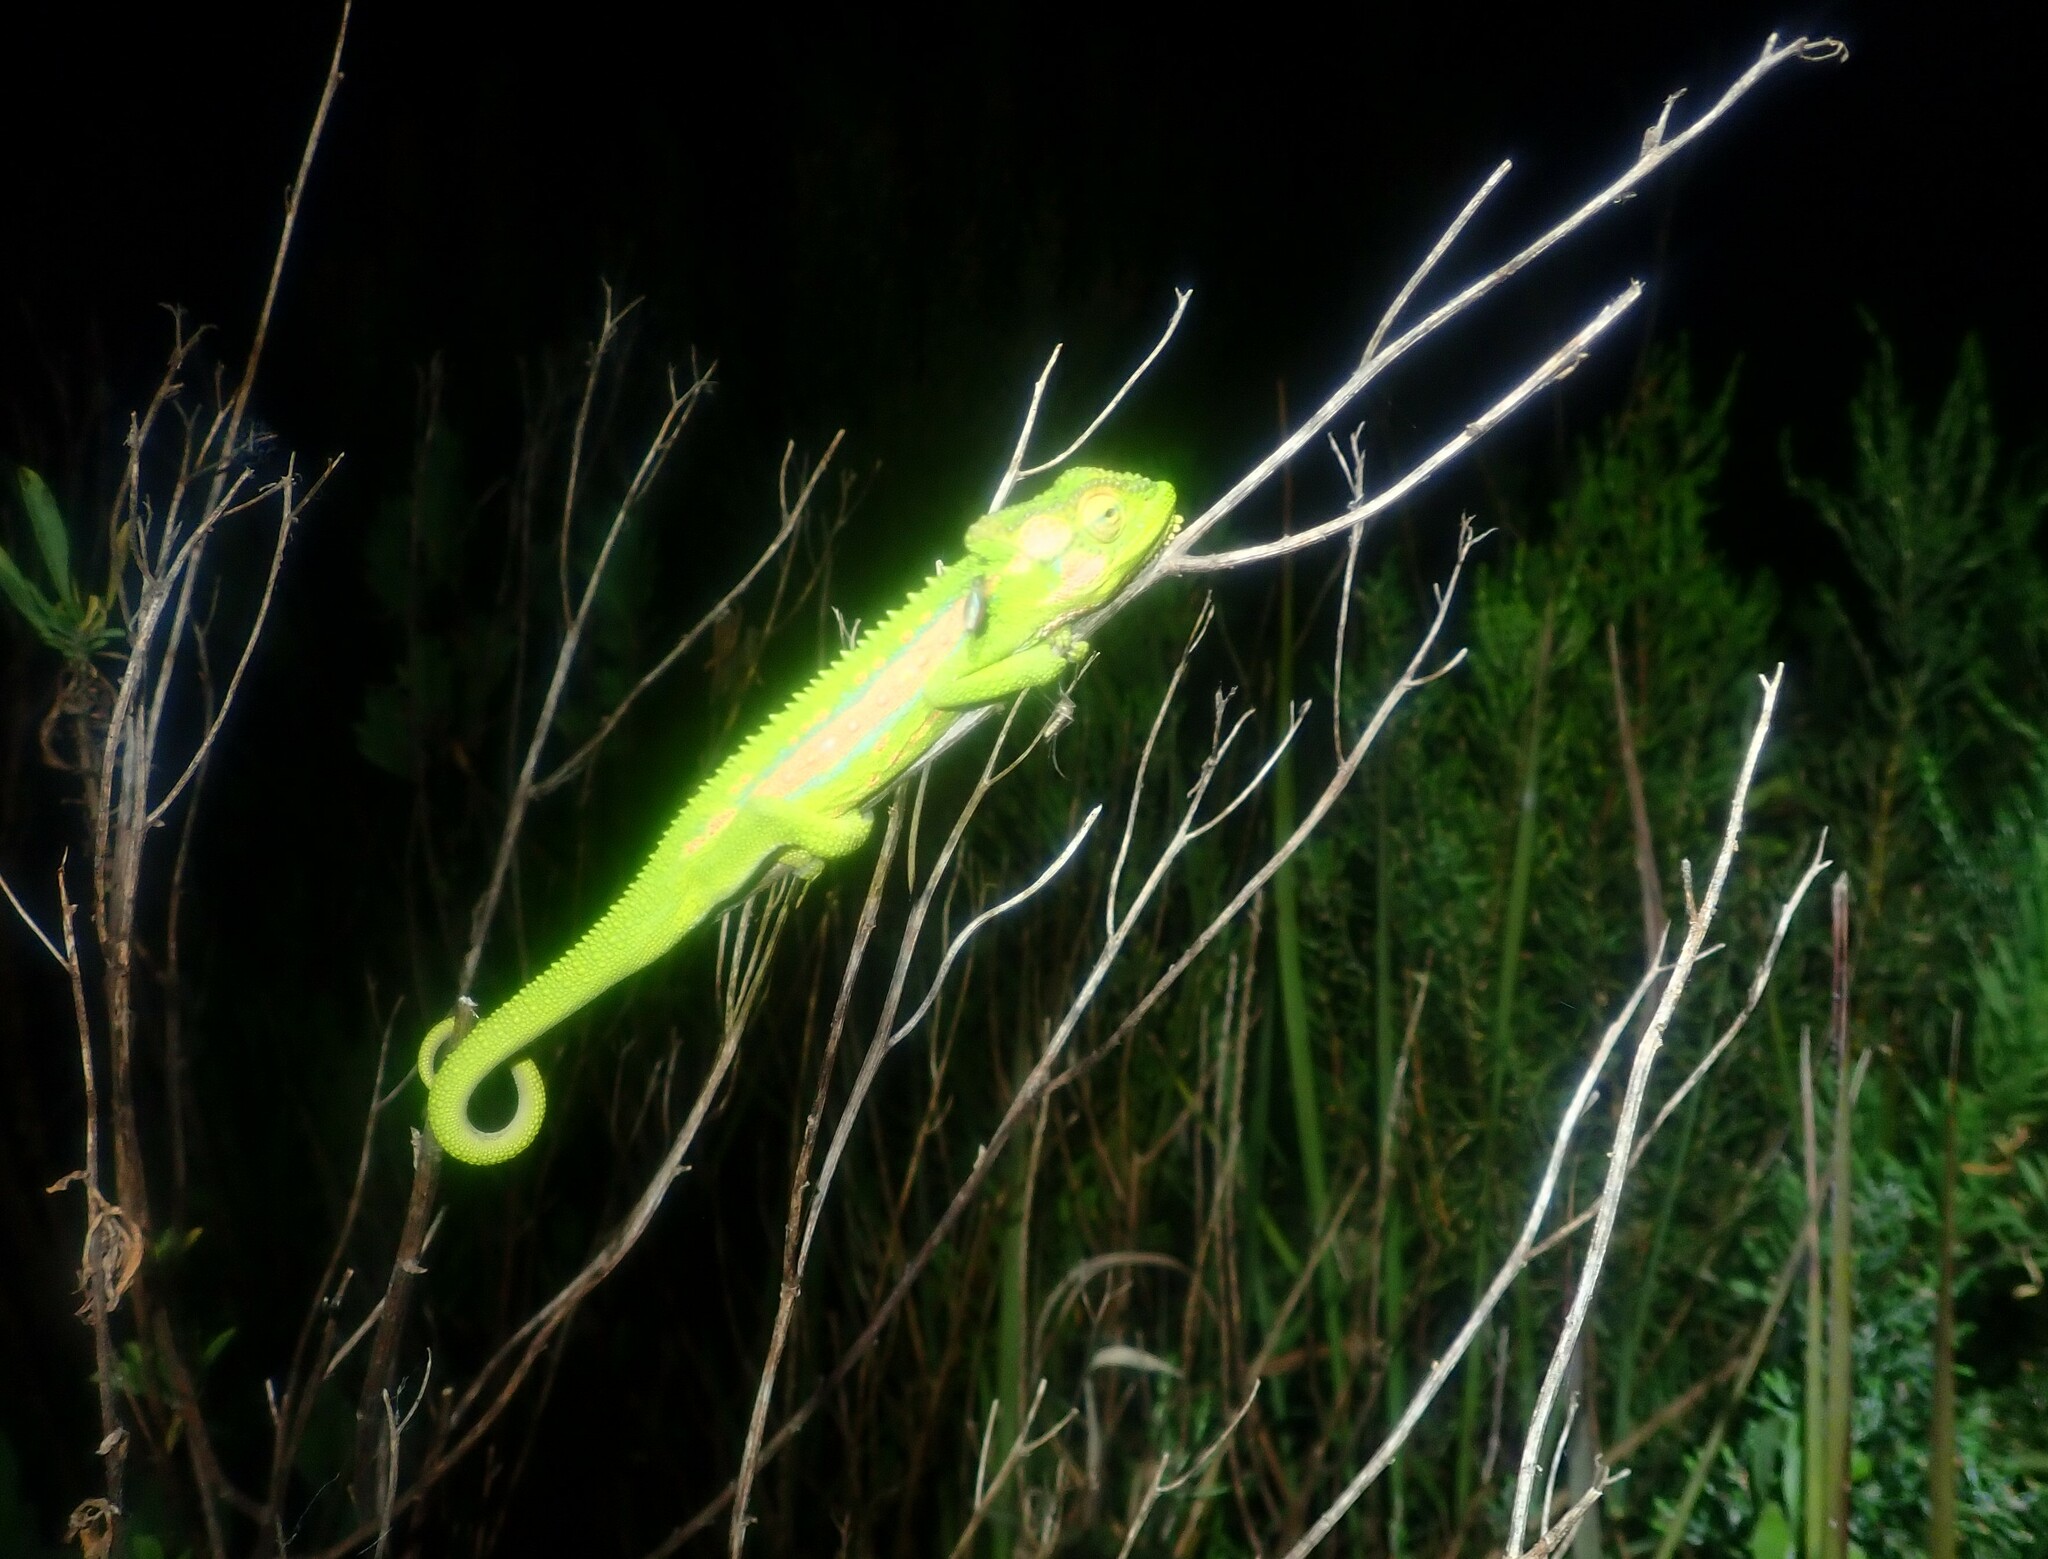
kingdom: Animalia
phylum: Chordata
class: Squamata
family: Chamaeleonidae
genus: Bradypodion
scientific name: Bradypodion pumilum
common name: Cape dwarf chameleon
